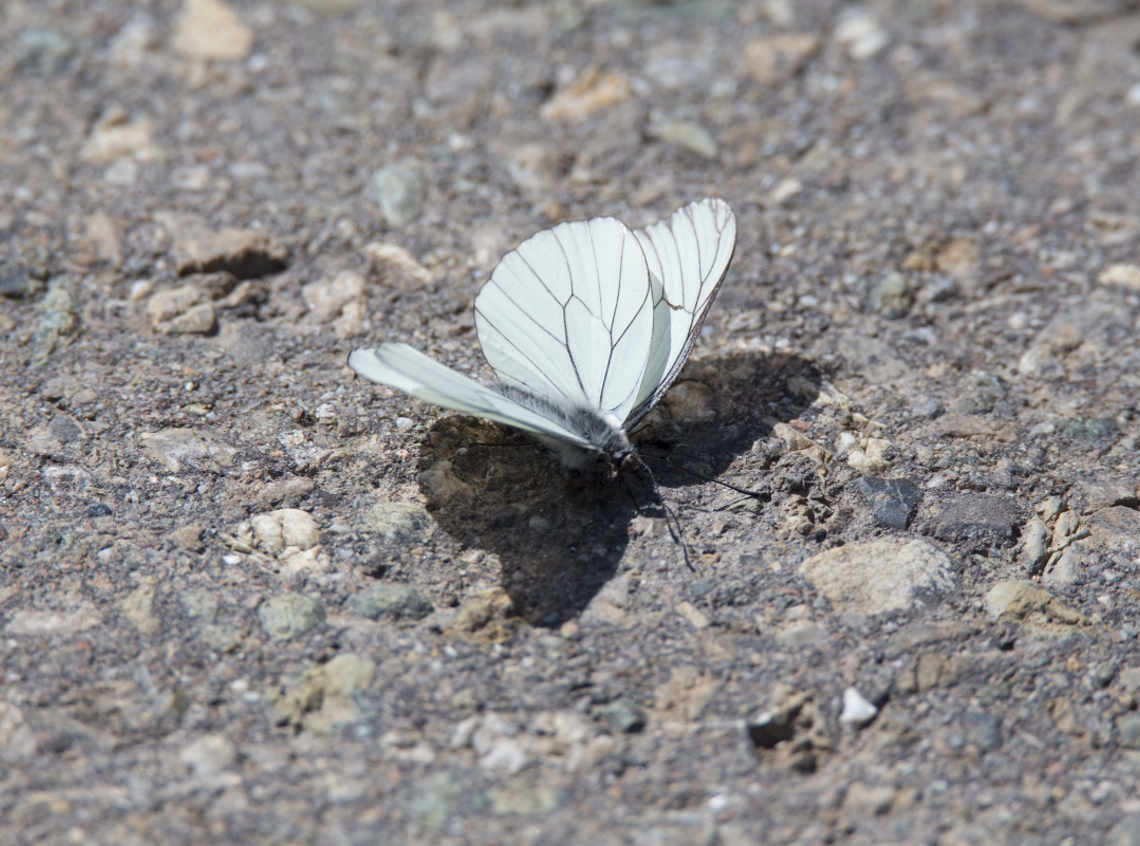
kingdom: Animalia
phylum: Arthropoda
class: Insecta
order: Lepidoptera
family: Pieridae
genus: Aporia
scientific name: Aporia crataegi
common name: Black-veined white
